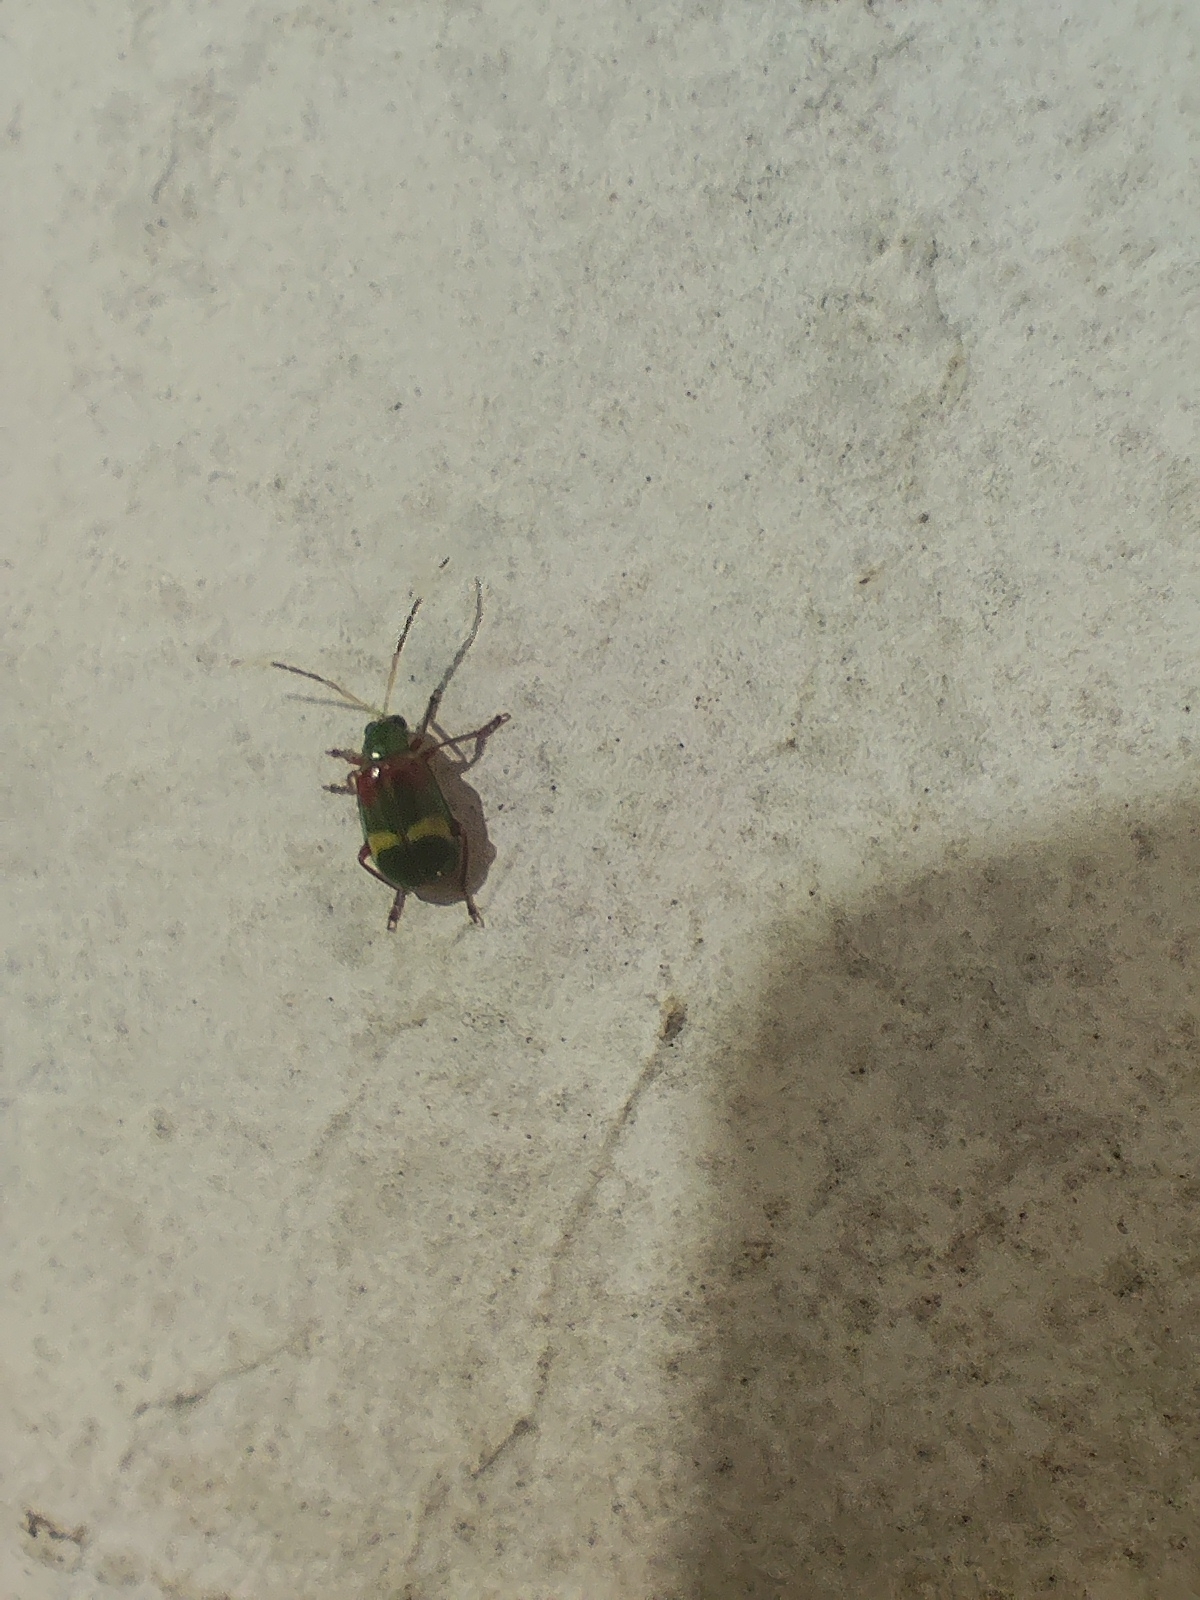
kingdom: Animalia
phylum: Arthropoda
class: Insecta
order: Coleoptera
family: Chrysomelidae
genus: Charidotella
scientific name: Charidotella amoenula
